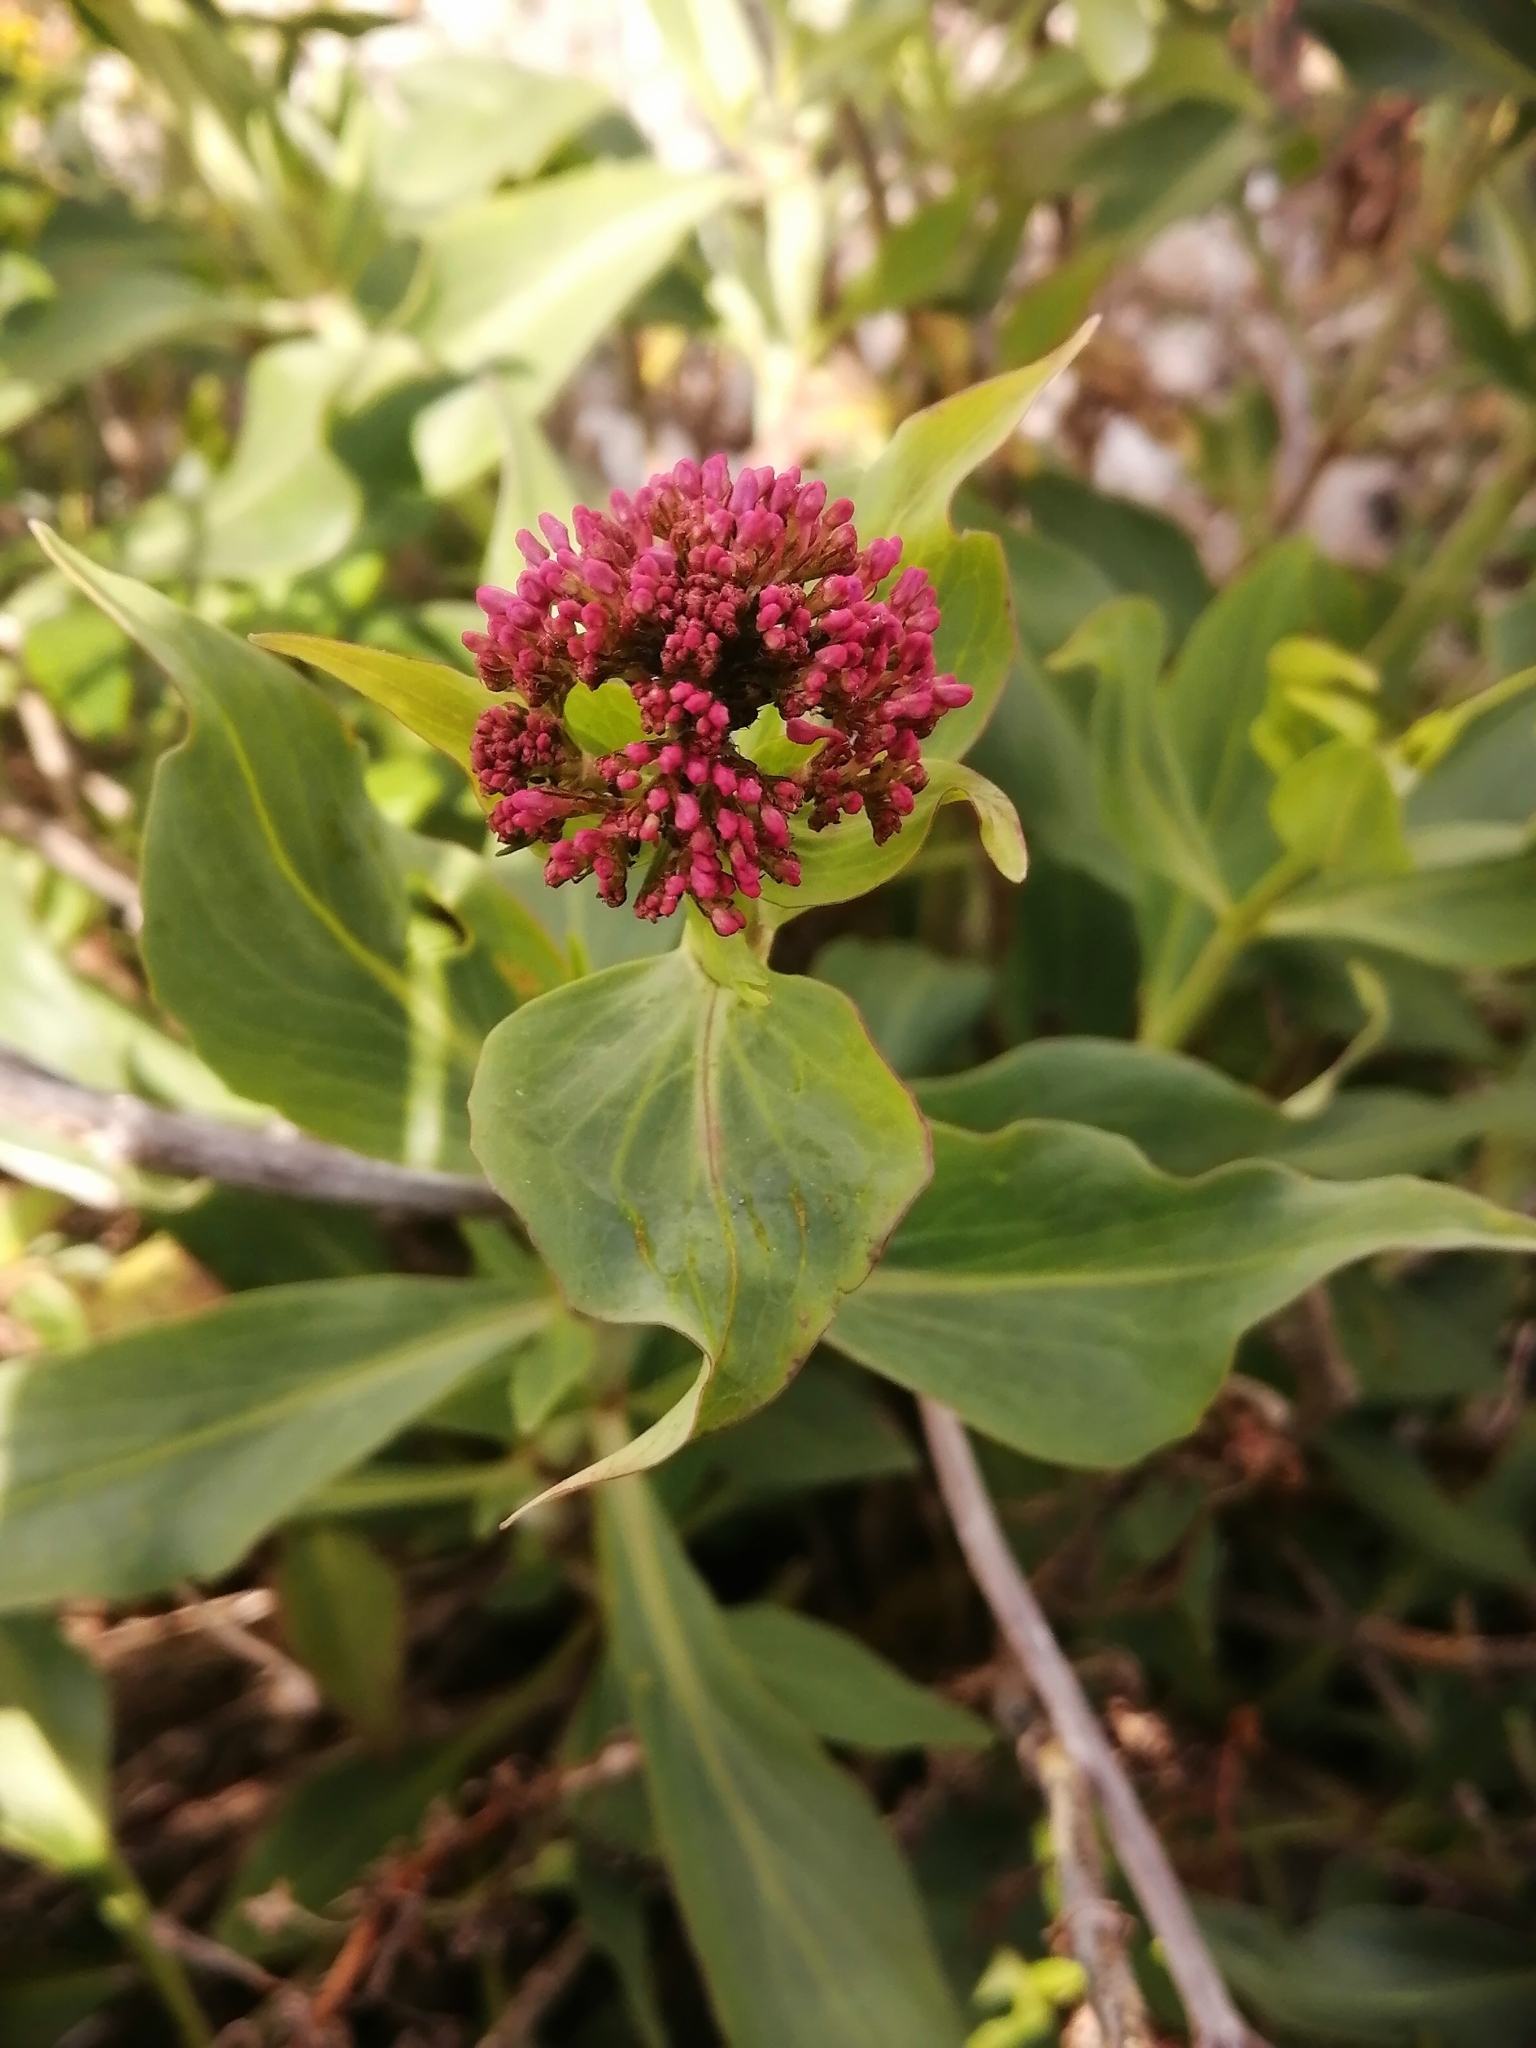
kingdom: Plantae
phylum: Tracheophyta
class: Magnoliopsida
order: Dipsacales
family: Caprifoliaceae
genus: Centranthus
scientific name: Centranthus ruber
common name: Red valerian
